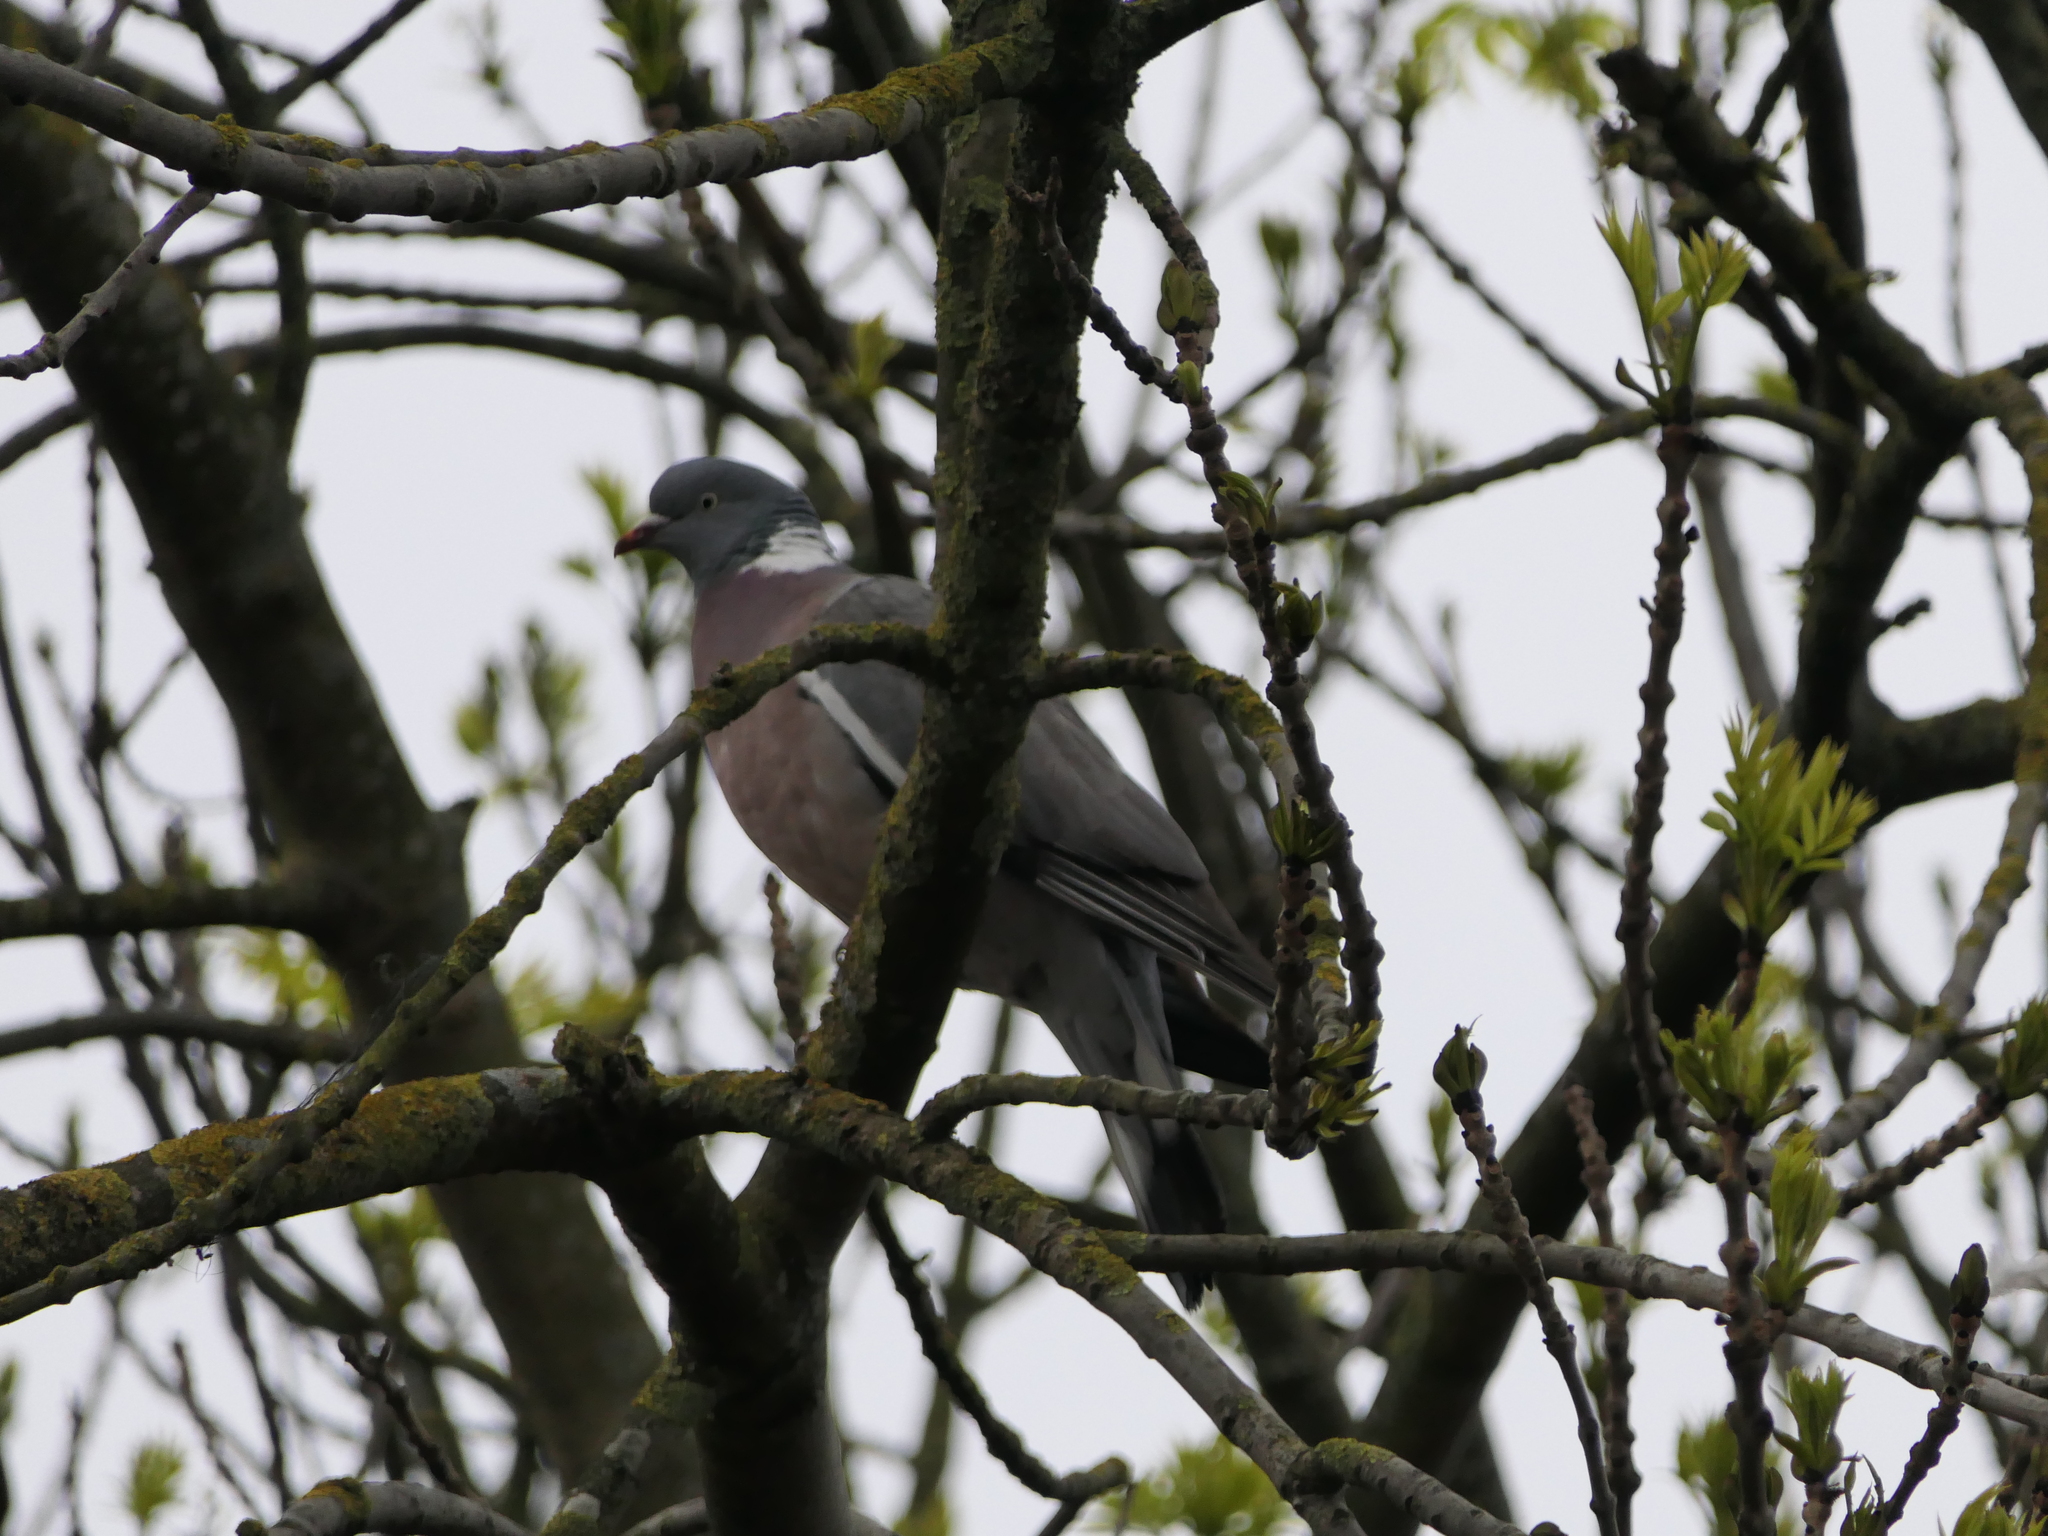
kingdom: Animalia
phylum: Chordata
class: Aves
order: Columbiformes
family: Columbidae
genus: Columba
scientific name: Columba palumbus
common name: Common wood pigeon
